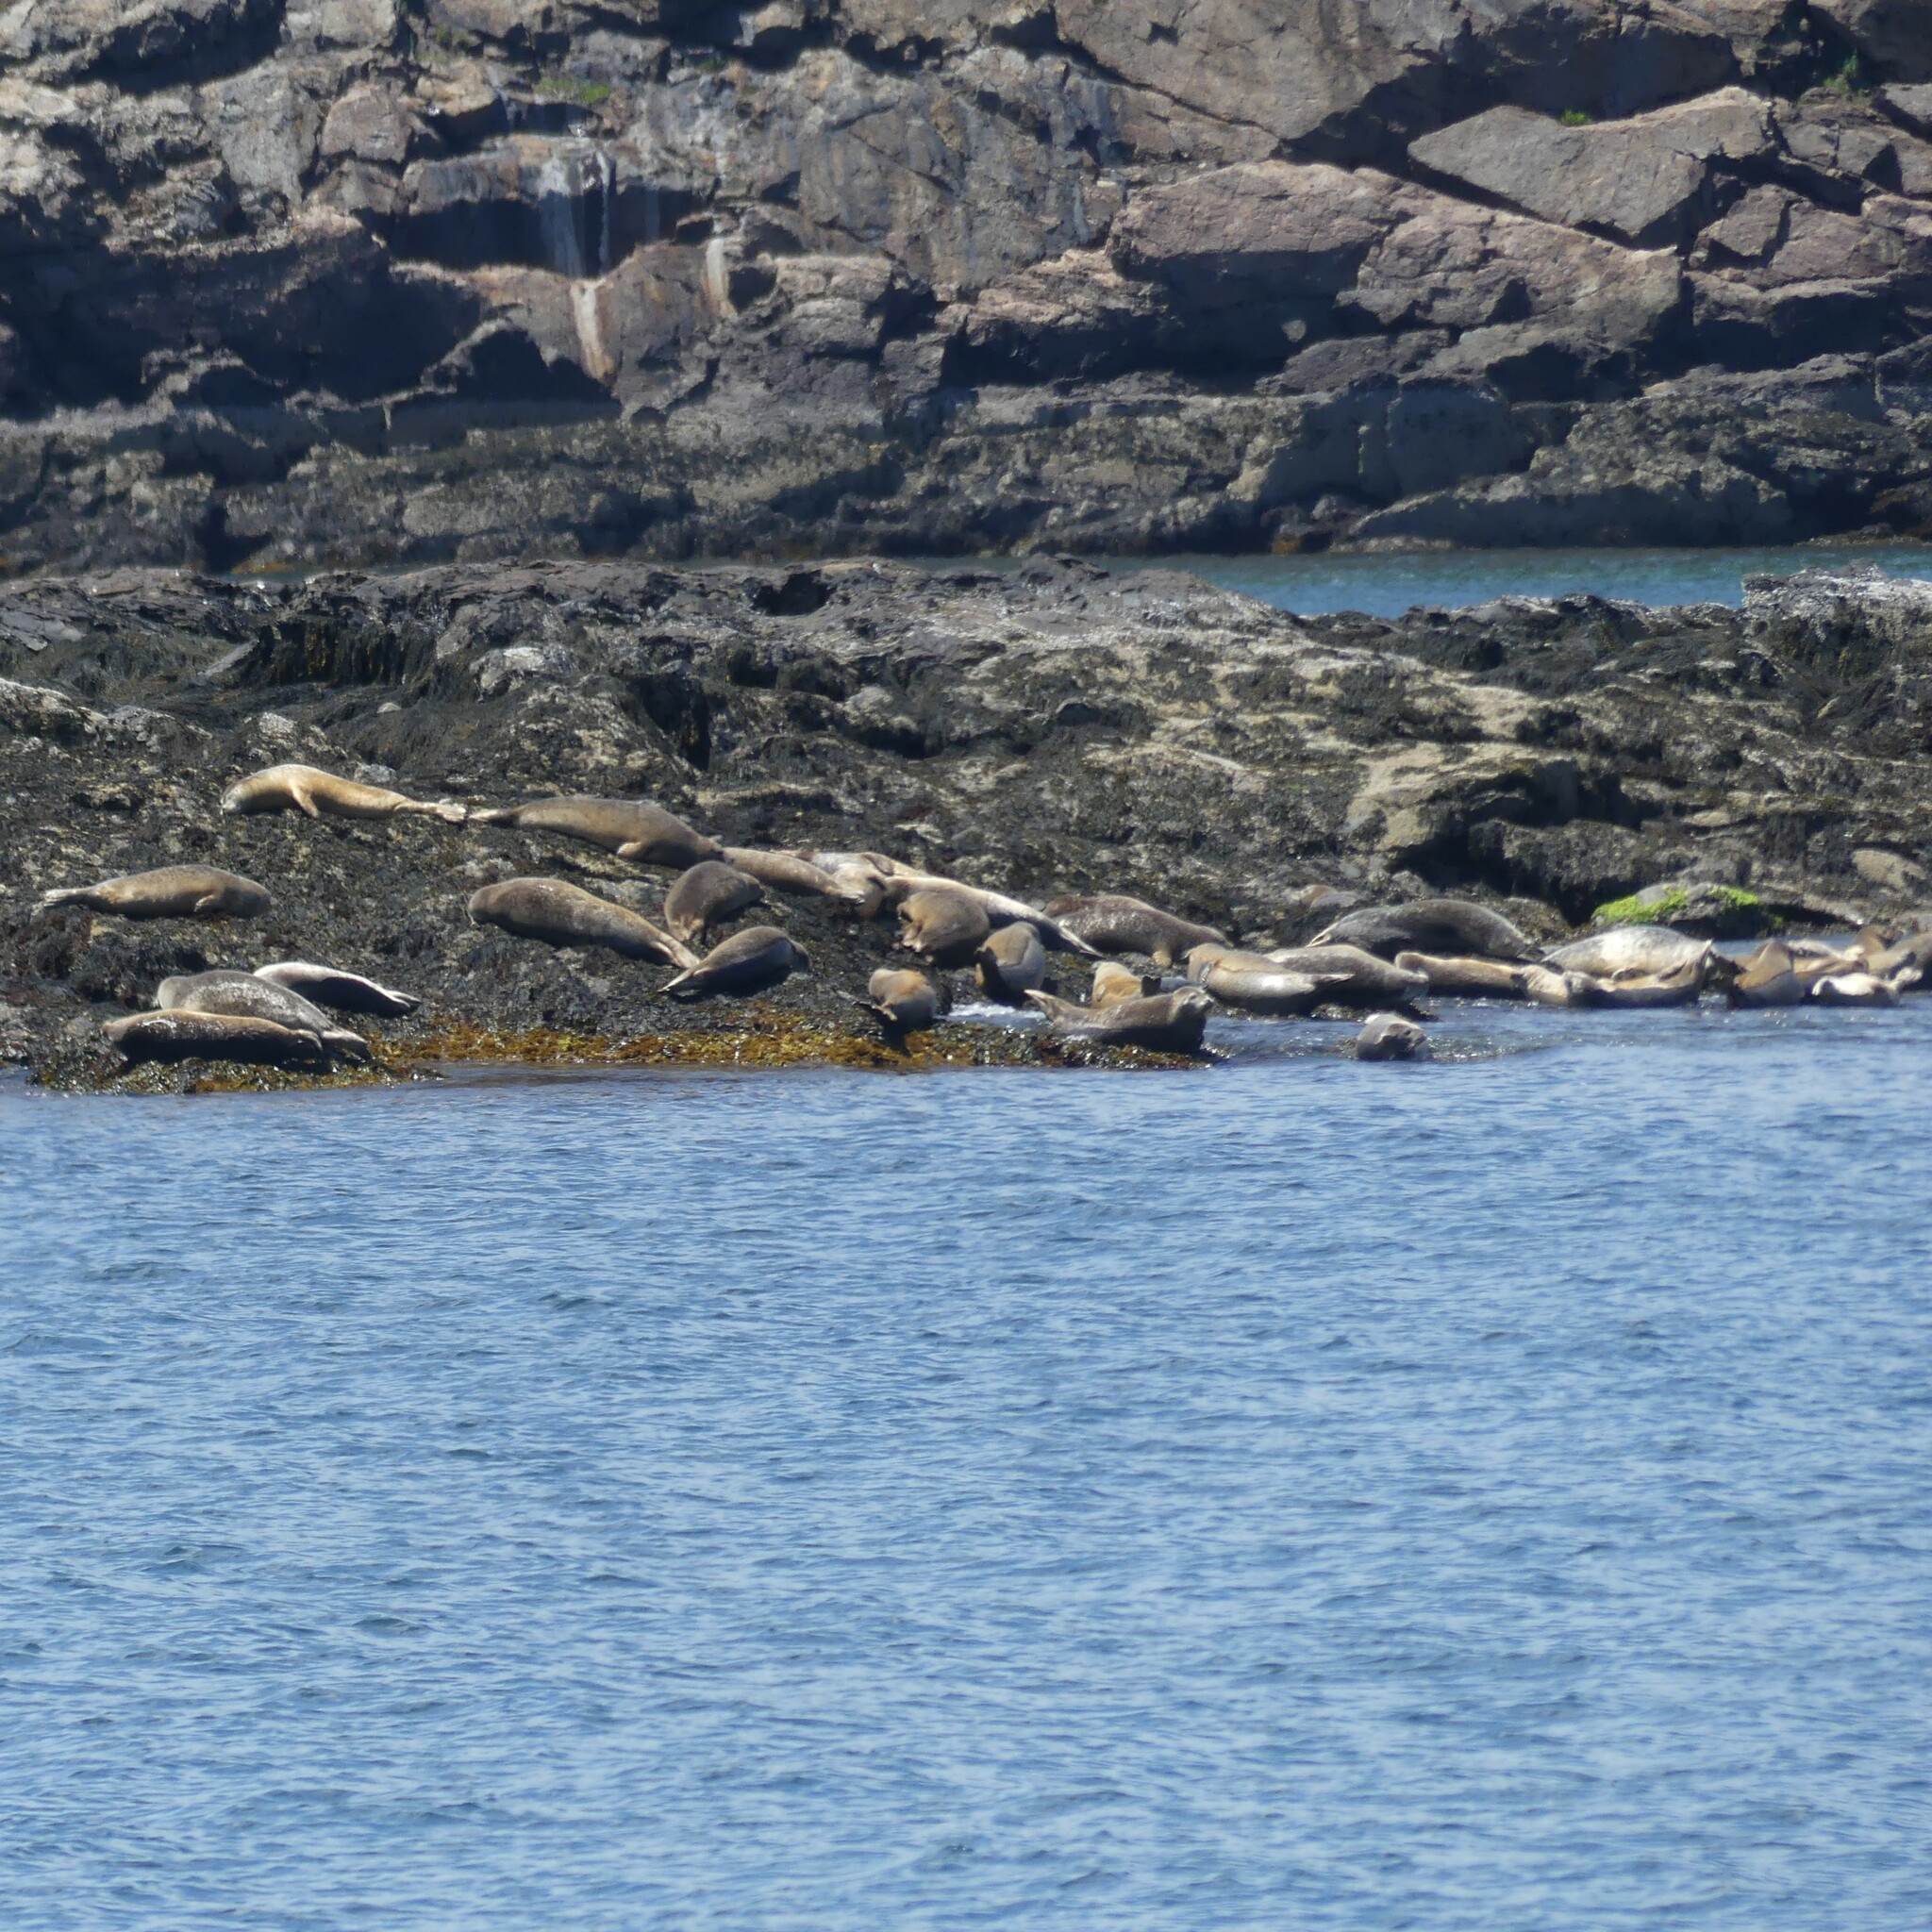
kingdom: Animalia
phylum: Chordata
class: Mammalia
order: Carnivora
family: Phocidae
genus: Phoca
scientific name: Phoca vitulina
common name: Harbor seal
